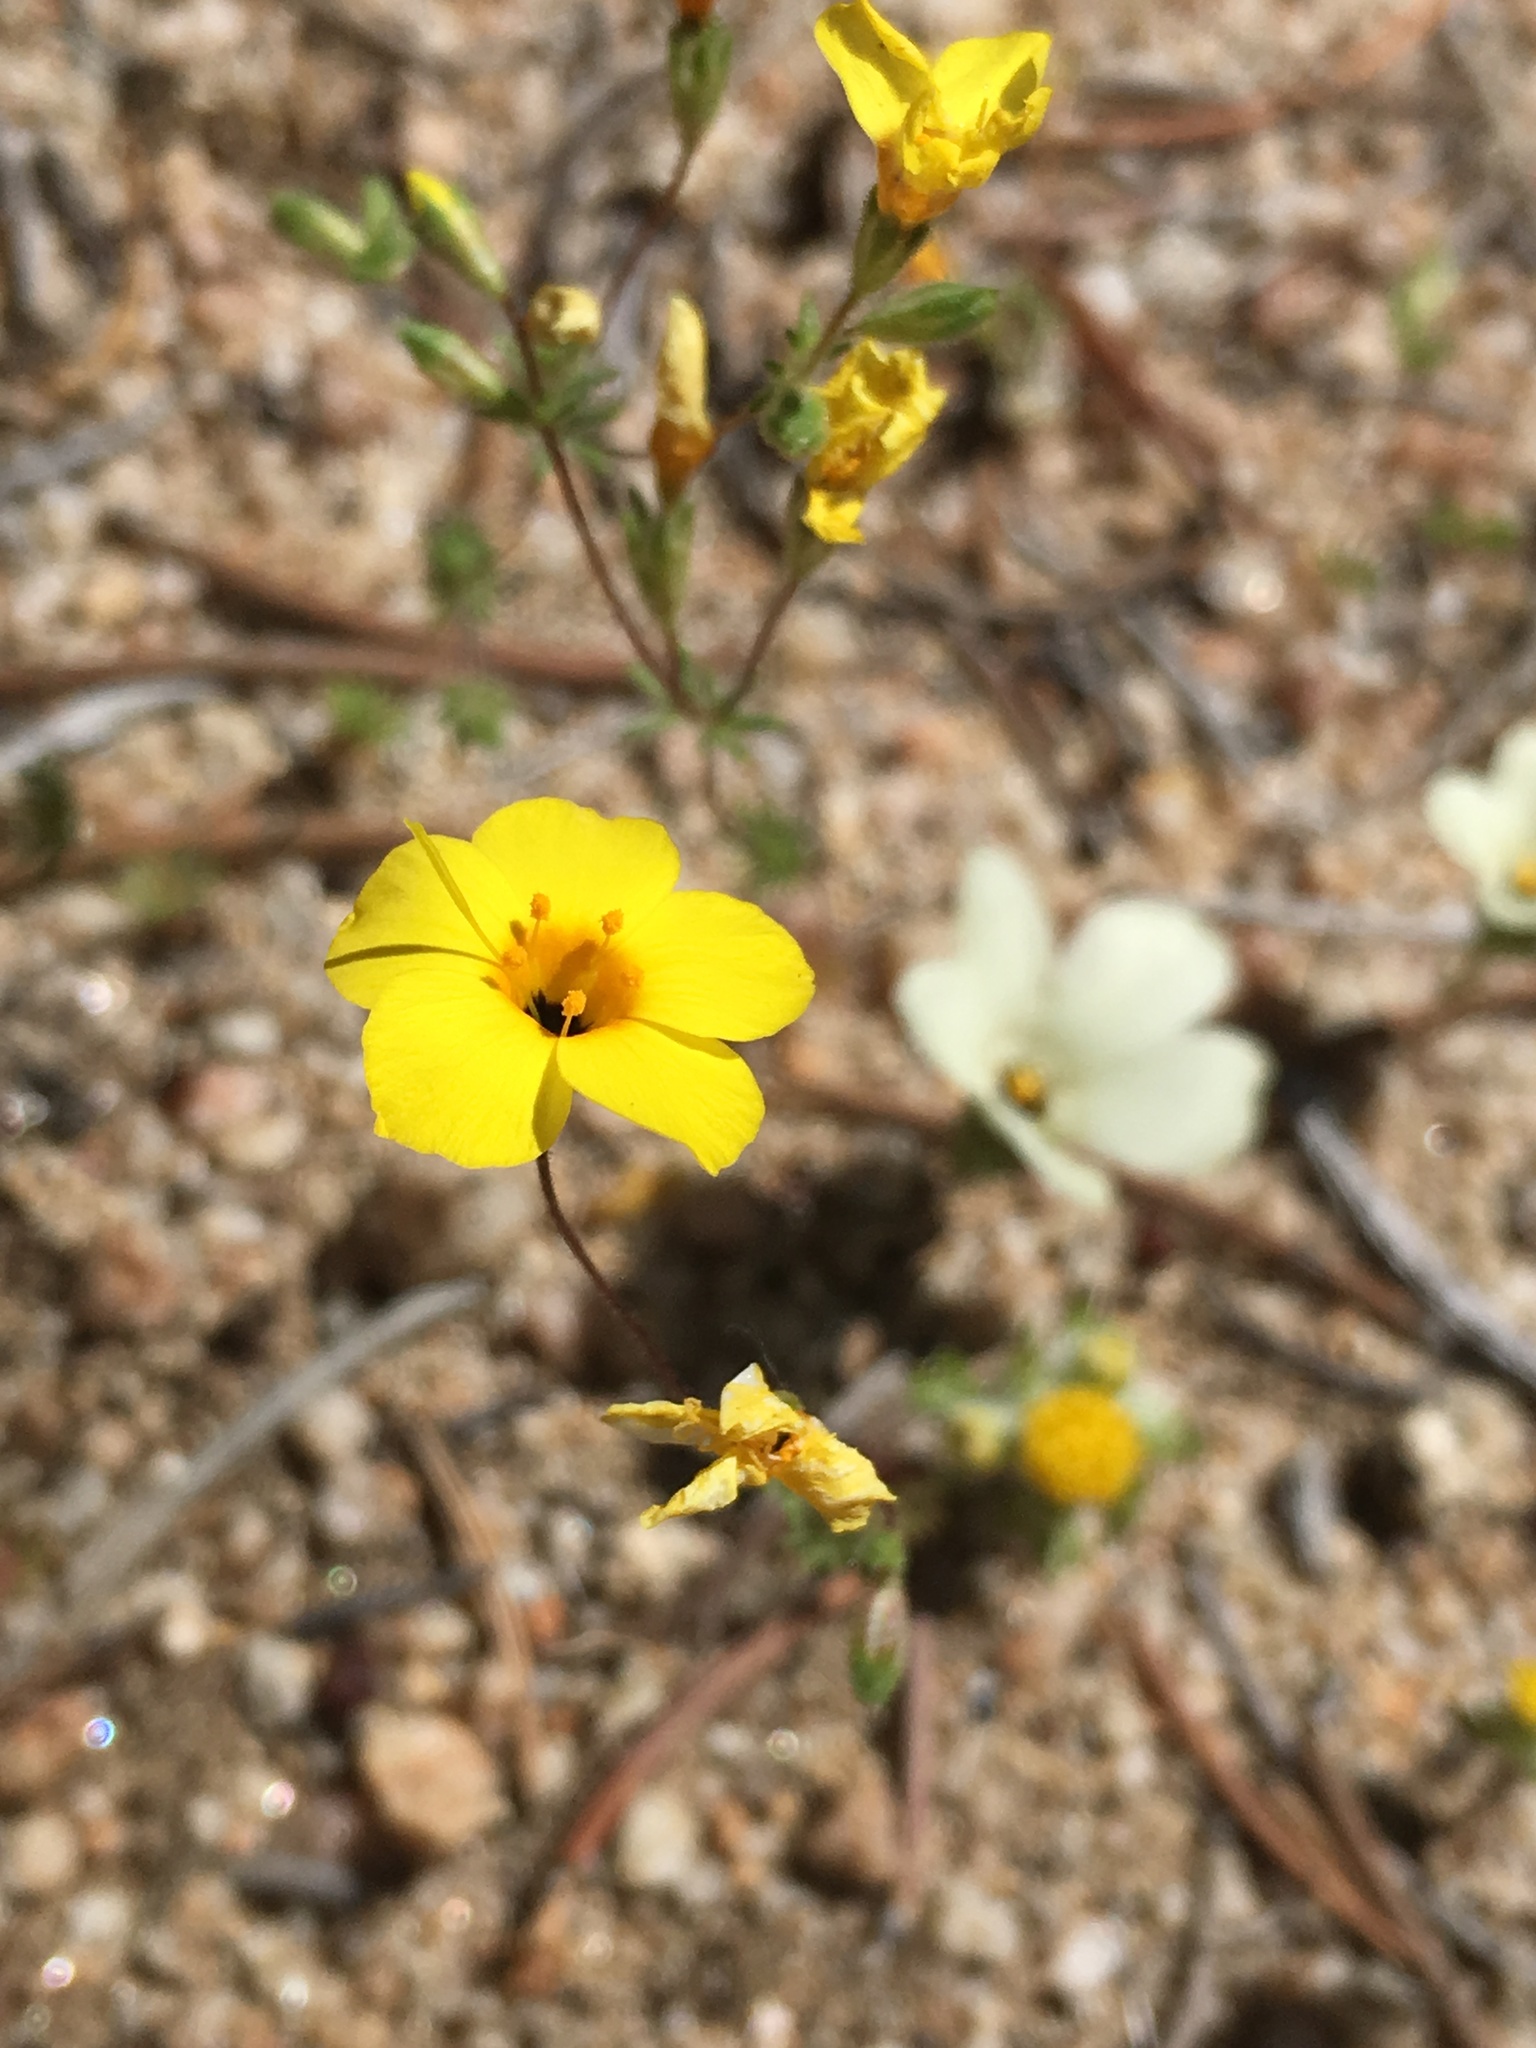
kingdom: Plantae
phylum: Tracheophyta
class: Magnoliopsida
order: Ericales
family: Polemoniaceae
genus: Leptosiphon
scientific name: Leptosiphon chrysanthus
